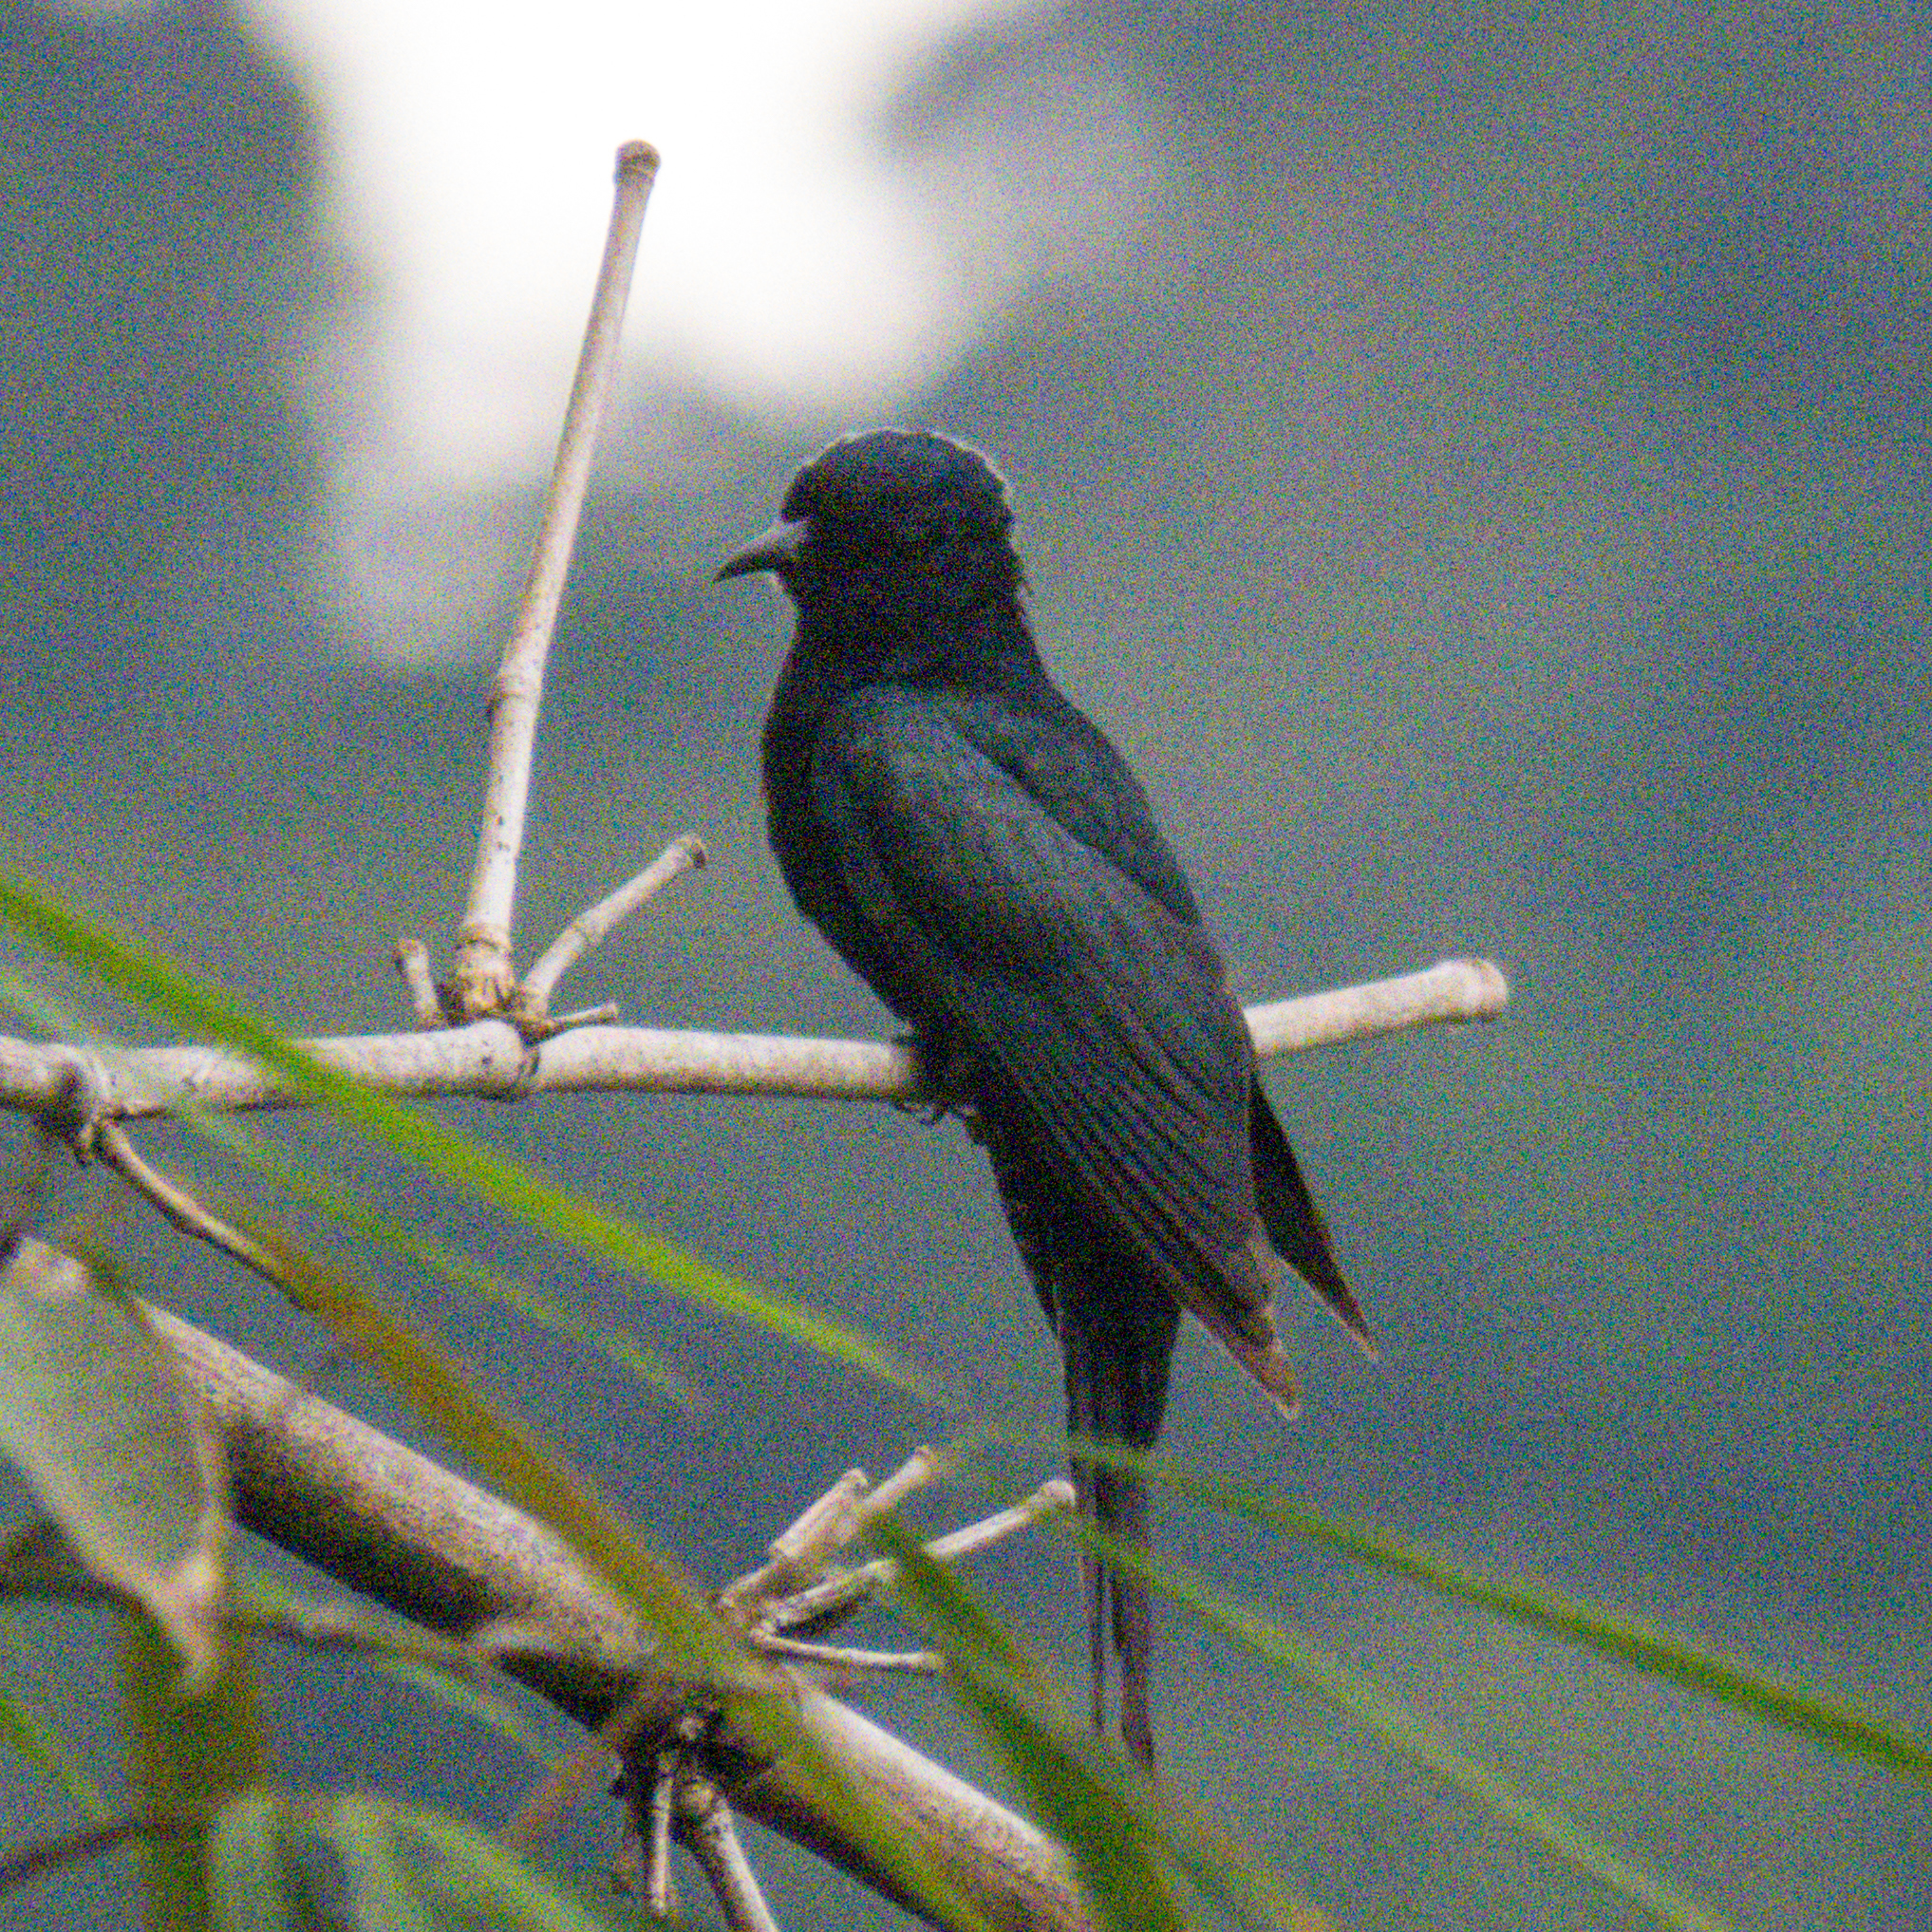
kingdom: Animalia
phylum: Chordata
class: Aves
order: Cuculiformes
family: Cuculidae
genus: Surniculus
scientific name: Surniculus lugubris
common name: Square-tailed drongo-cuckoo
